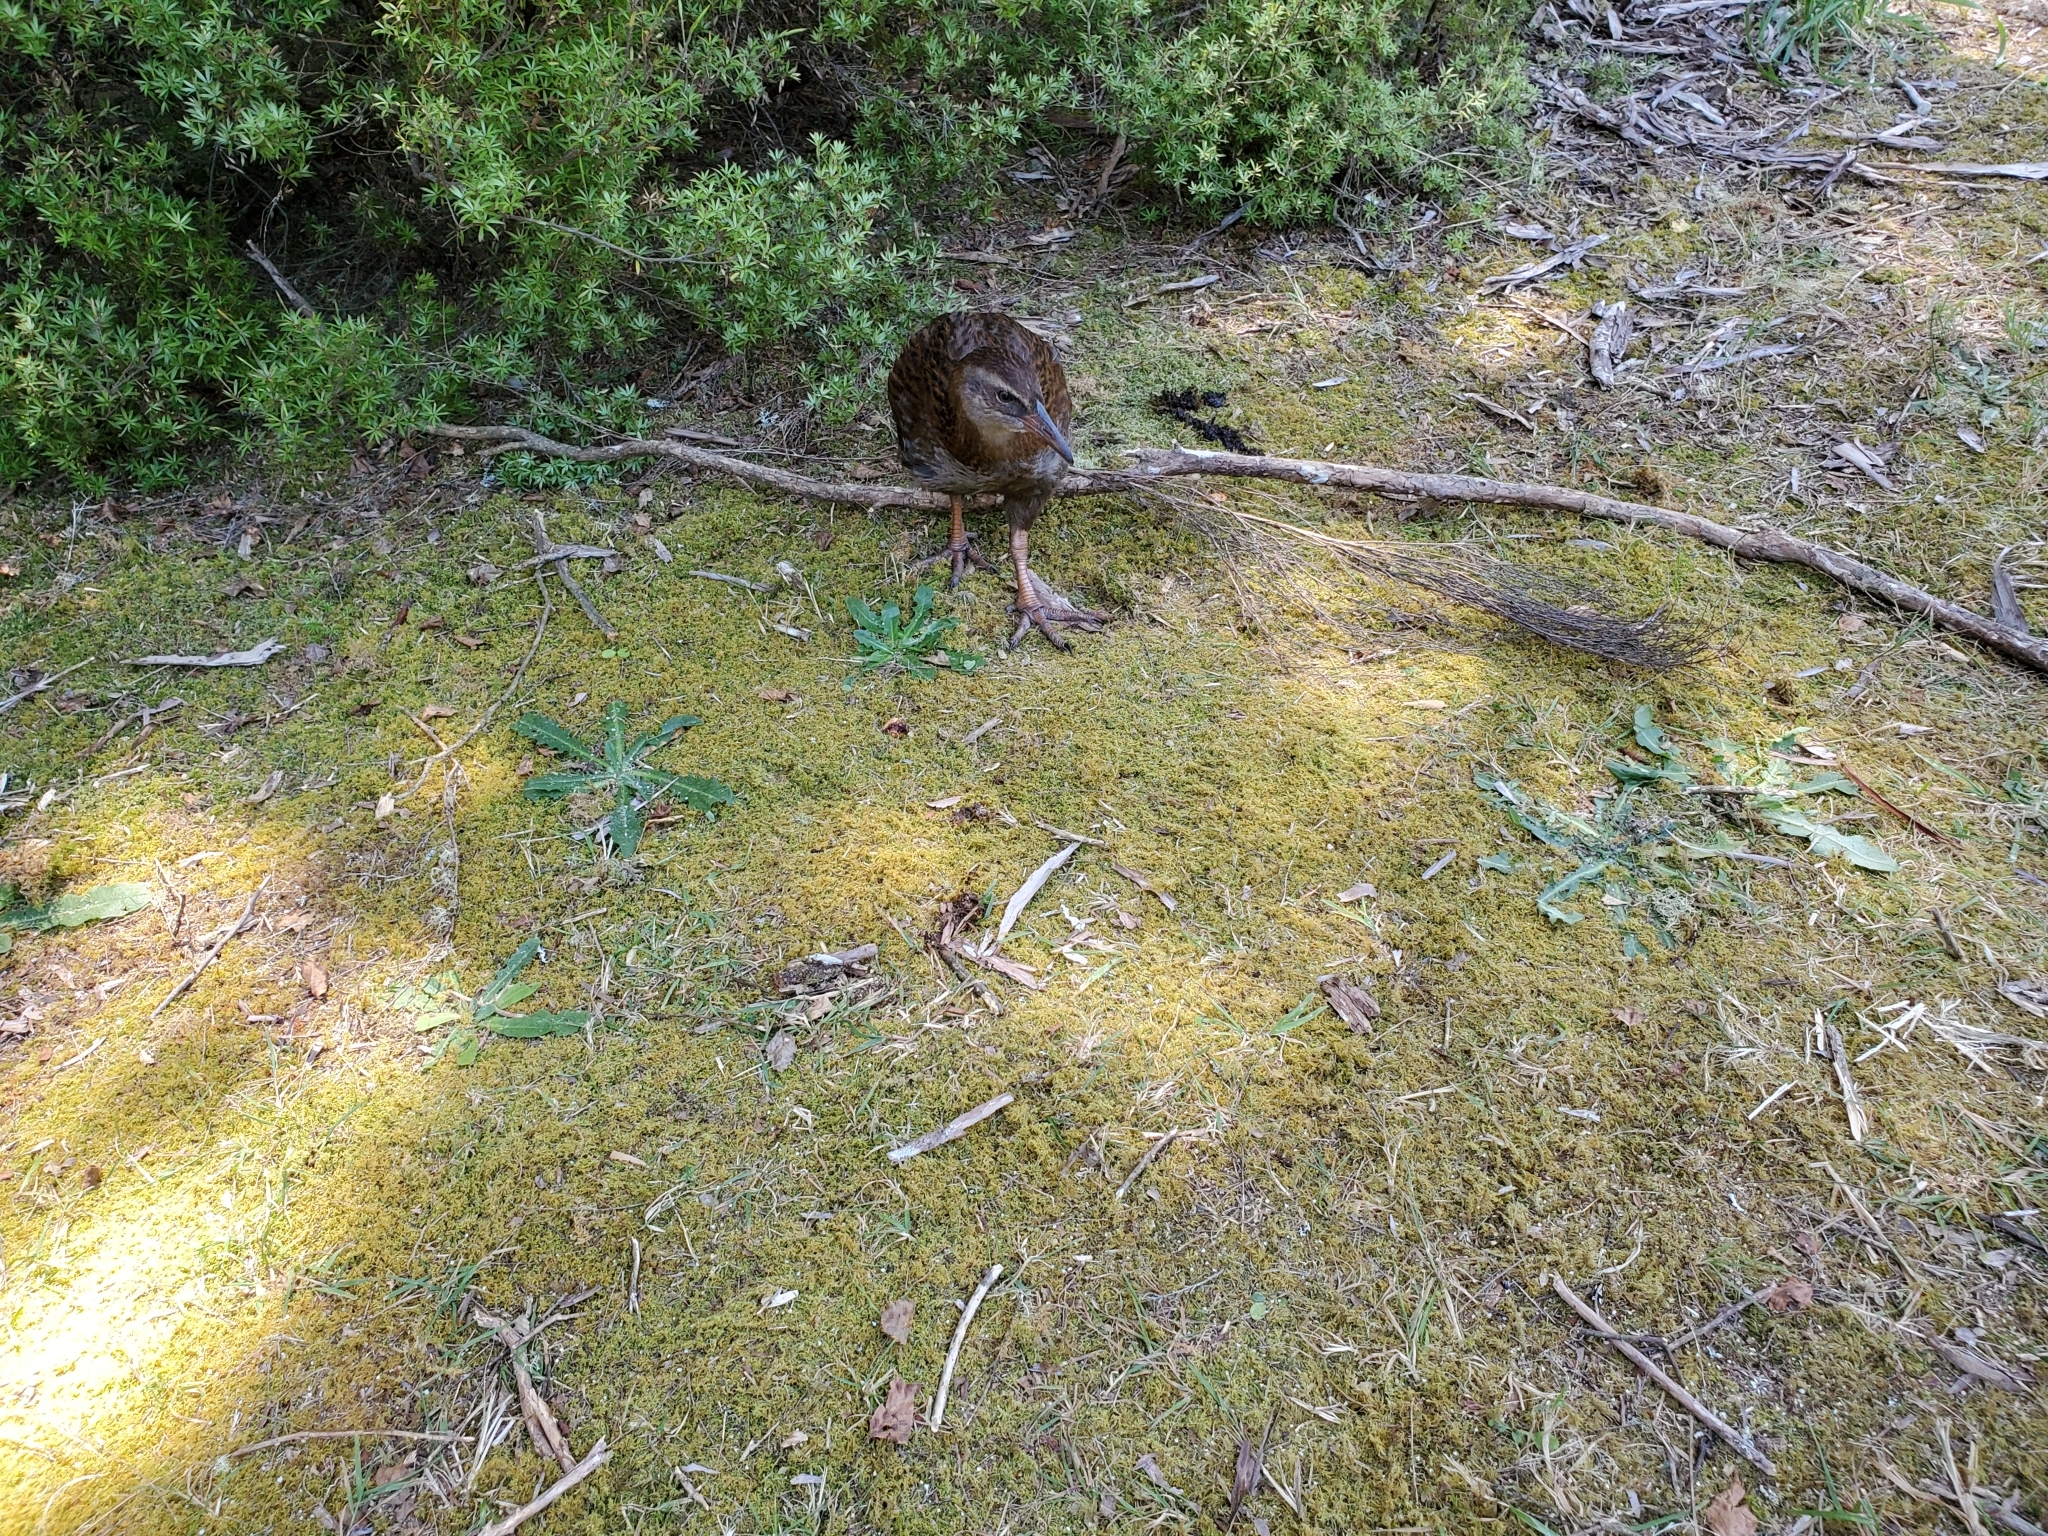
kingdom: Animalia
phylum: Chordata
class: Aves
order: Gruiformes
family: Rallidae
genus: Gallirallus
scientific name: Gallirallus australis
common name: Weka
